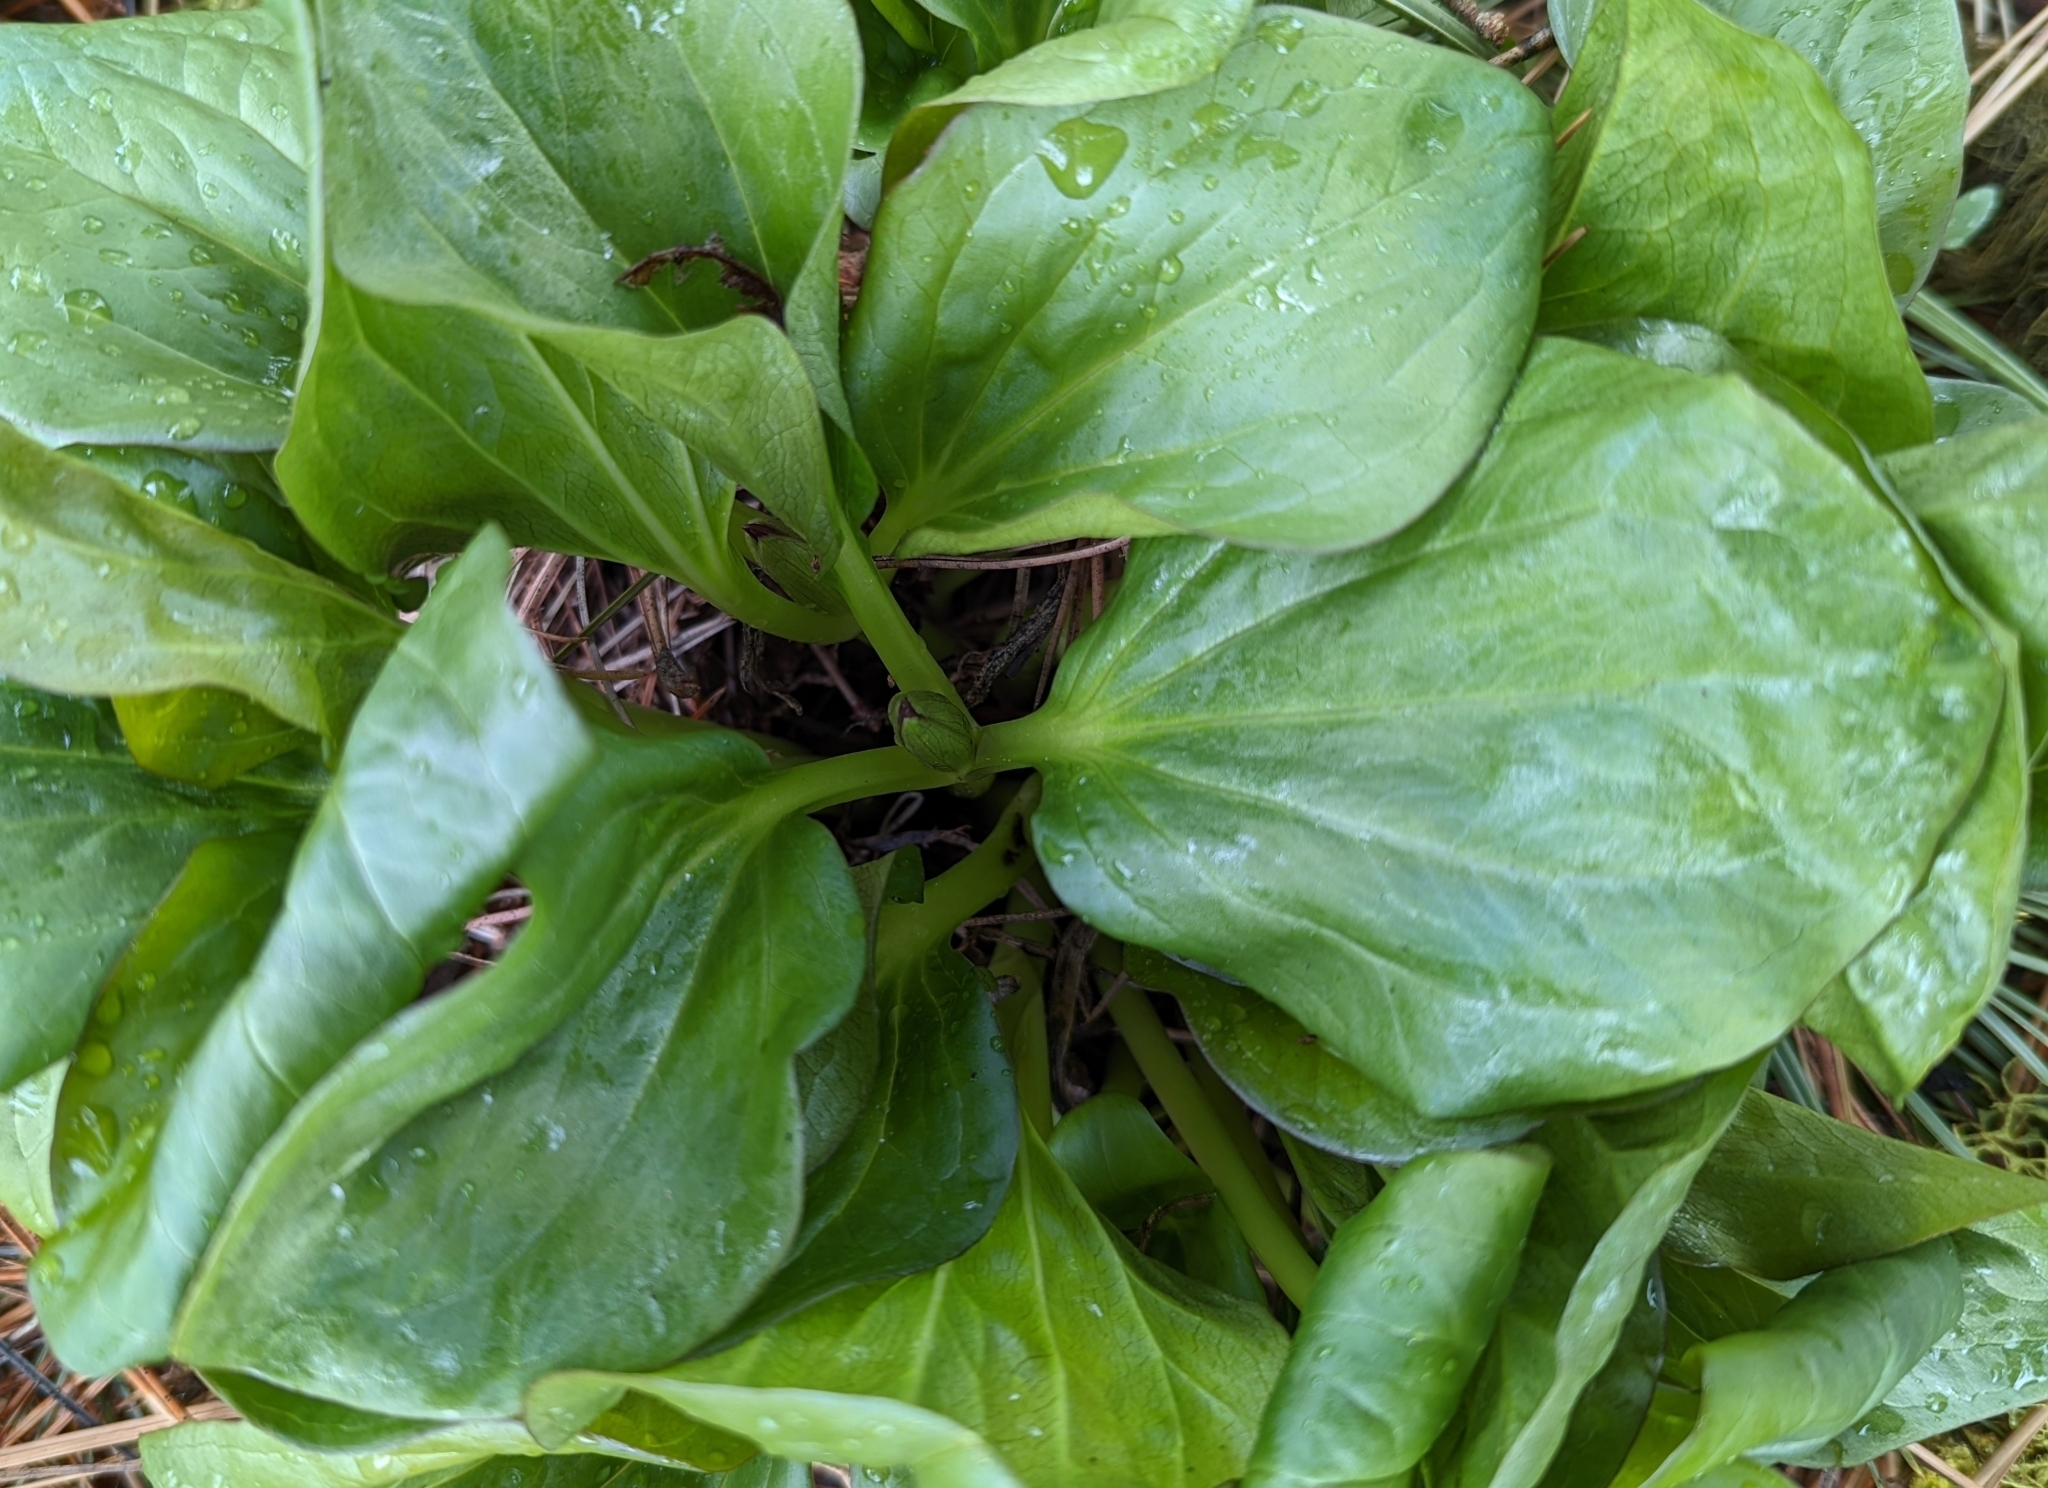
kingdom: Plantae
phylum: Tracheophyta
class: Liliopsida
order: Liliales
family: Melanthiaceae
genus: Trillium
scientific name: Trillium petiolatum
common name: Idaho trillium
